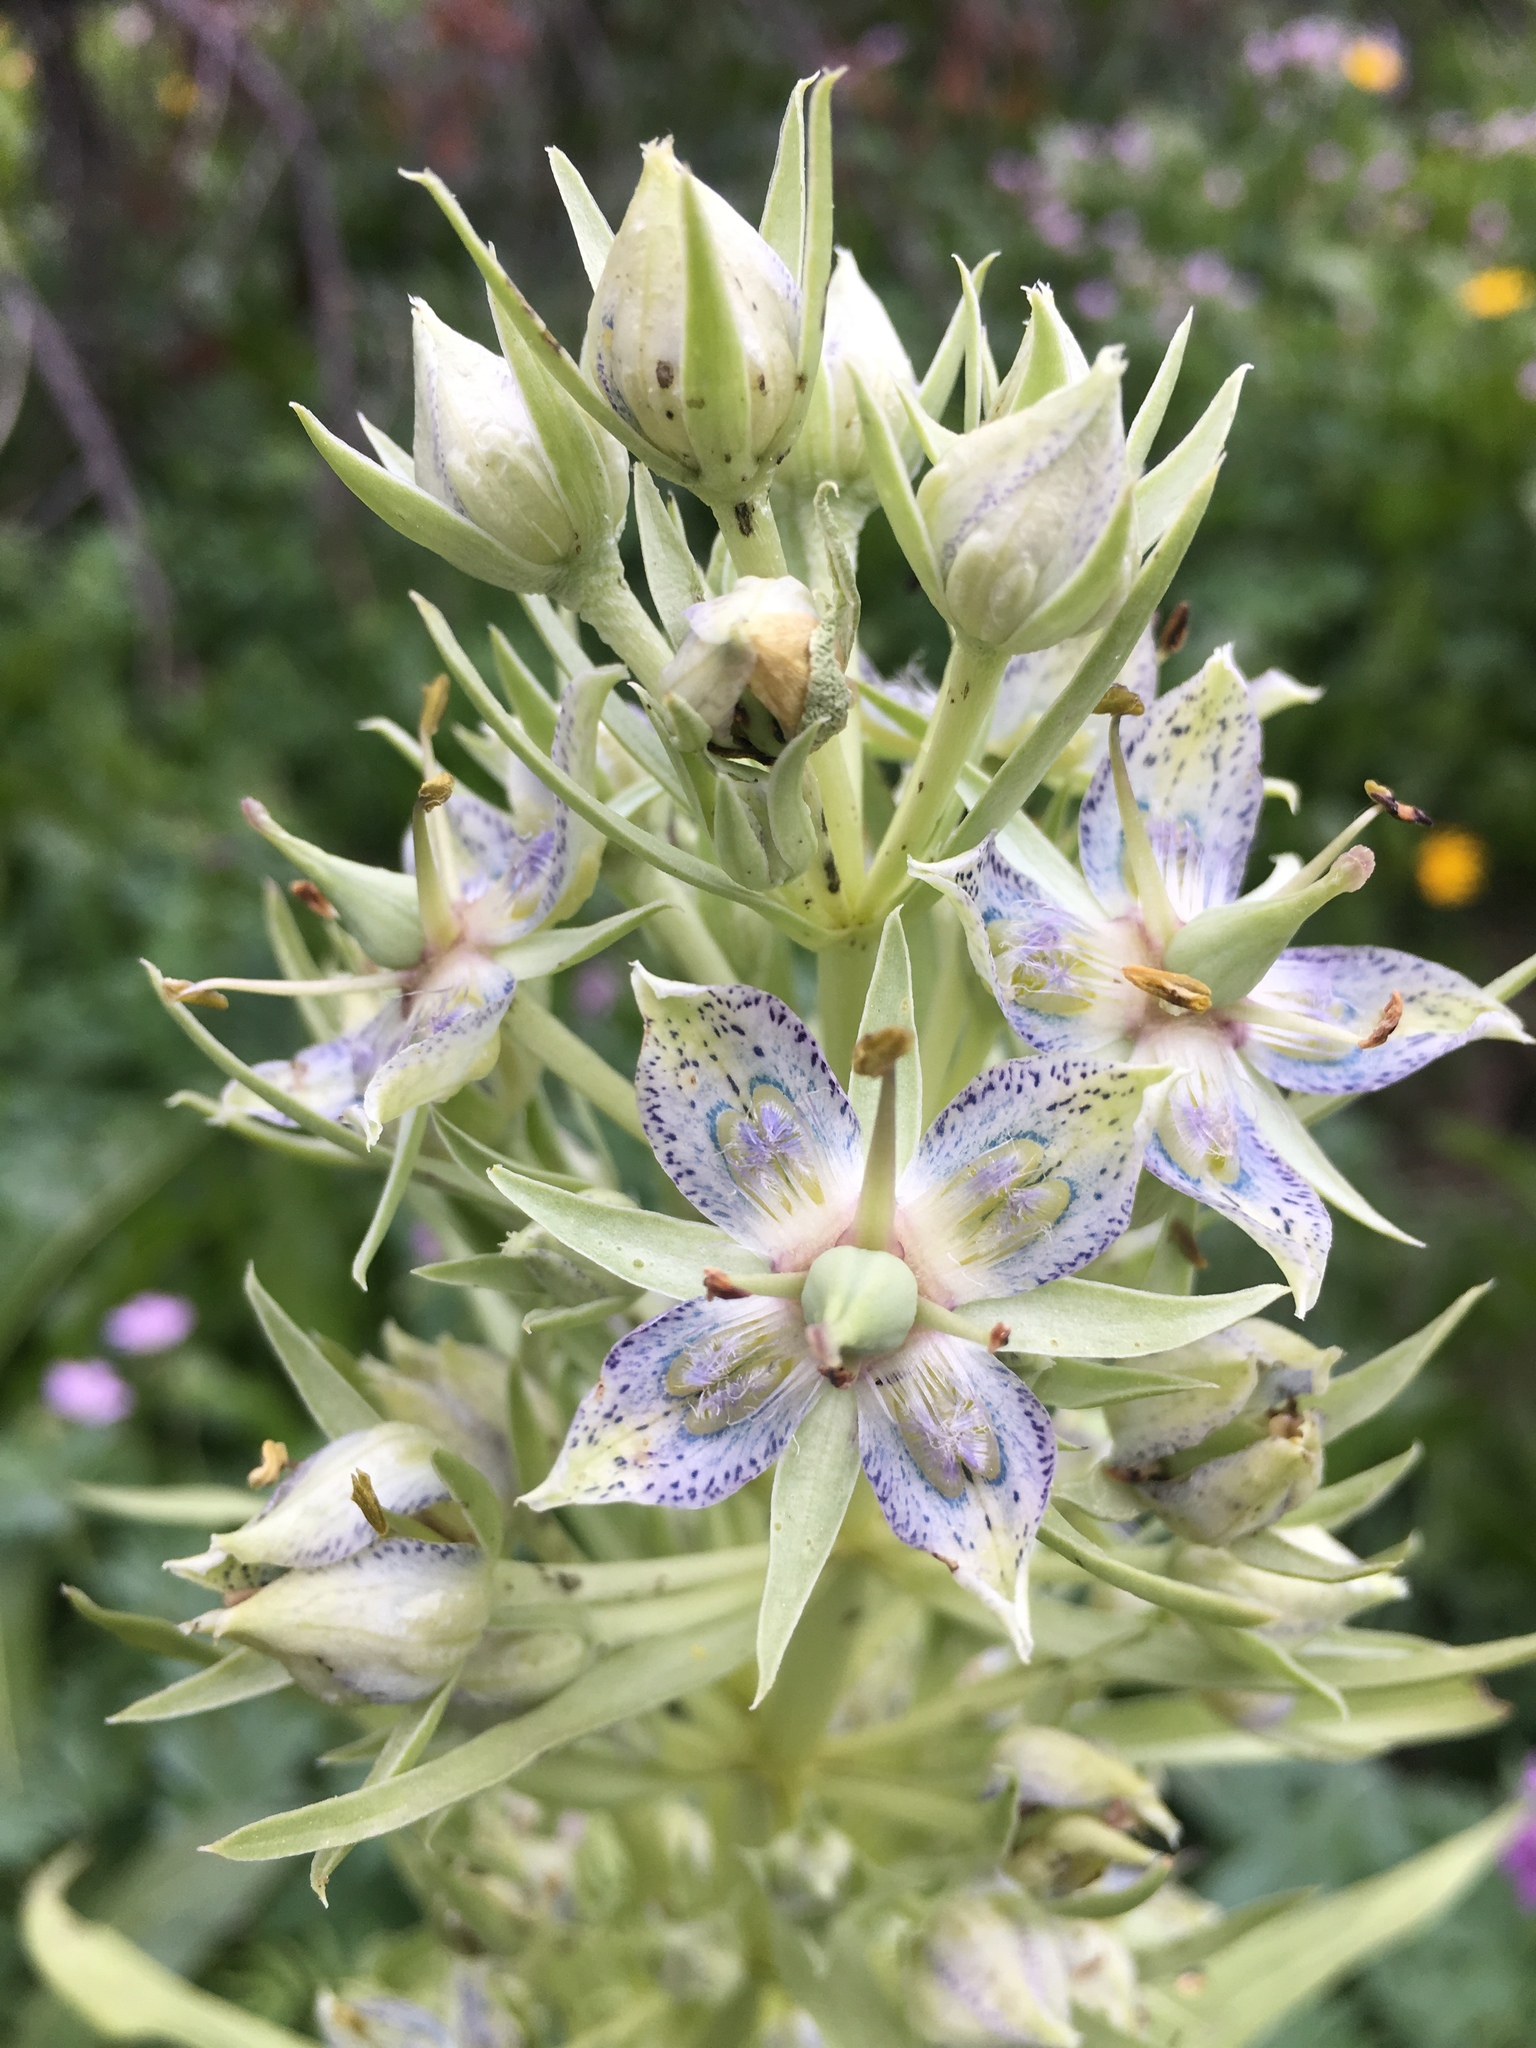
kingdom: Plantae
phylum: Tracheophyta
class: Magnoliopsida
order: Gentianales
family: Gentianaceae
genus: Frasera
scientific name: Frasera speciosa
